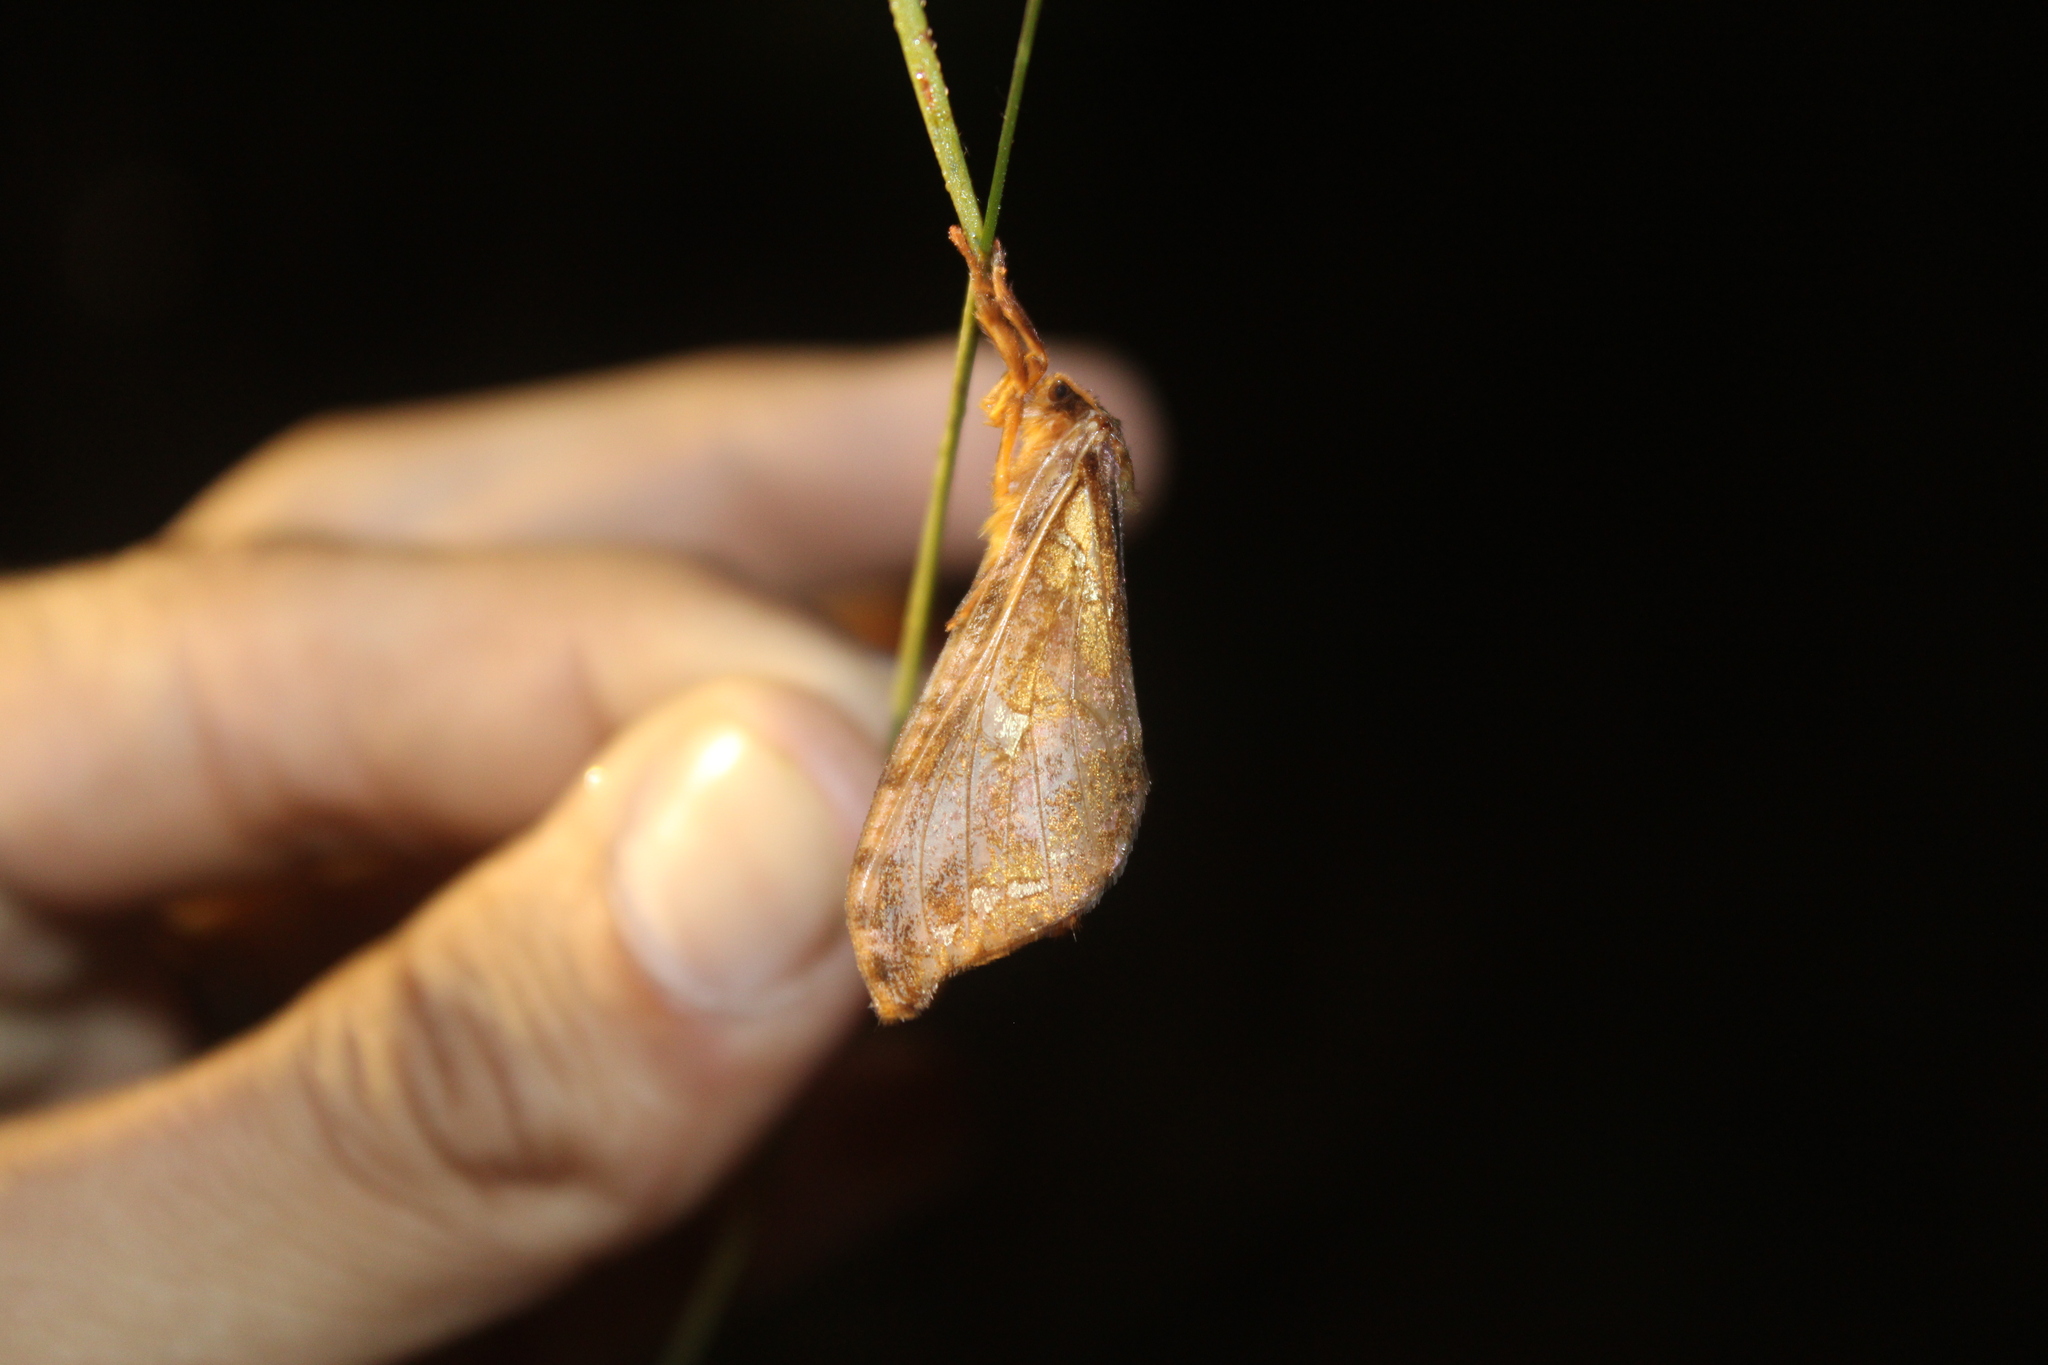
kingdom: Animalia
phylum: Arthropoda
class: Insecta
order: Lepidoptera
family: Hepialidae
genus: Sthenopis
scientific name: Sthenopis pretiosus
